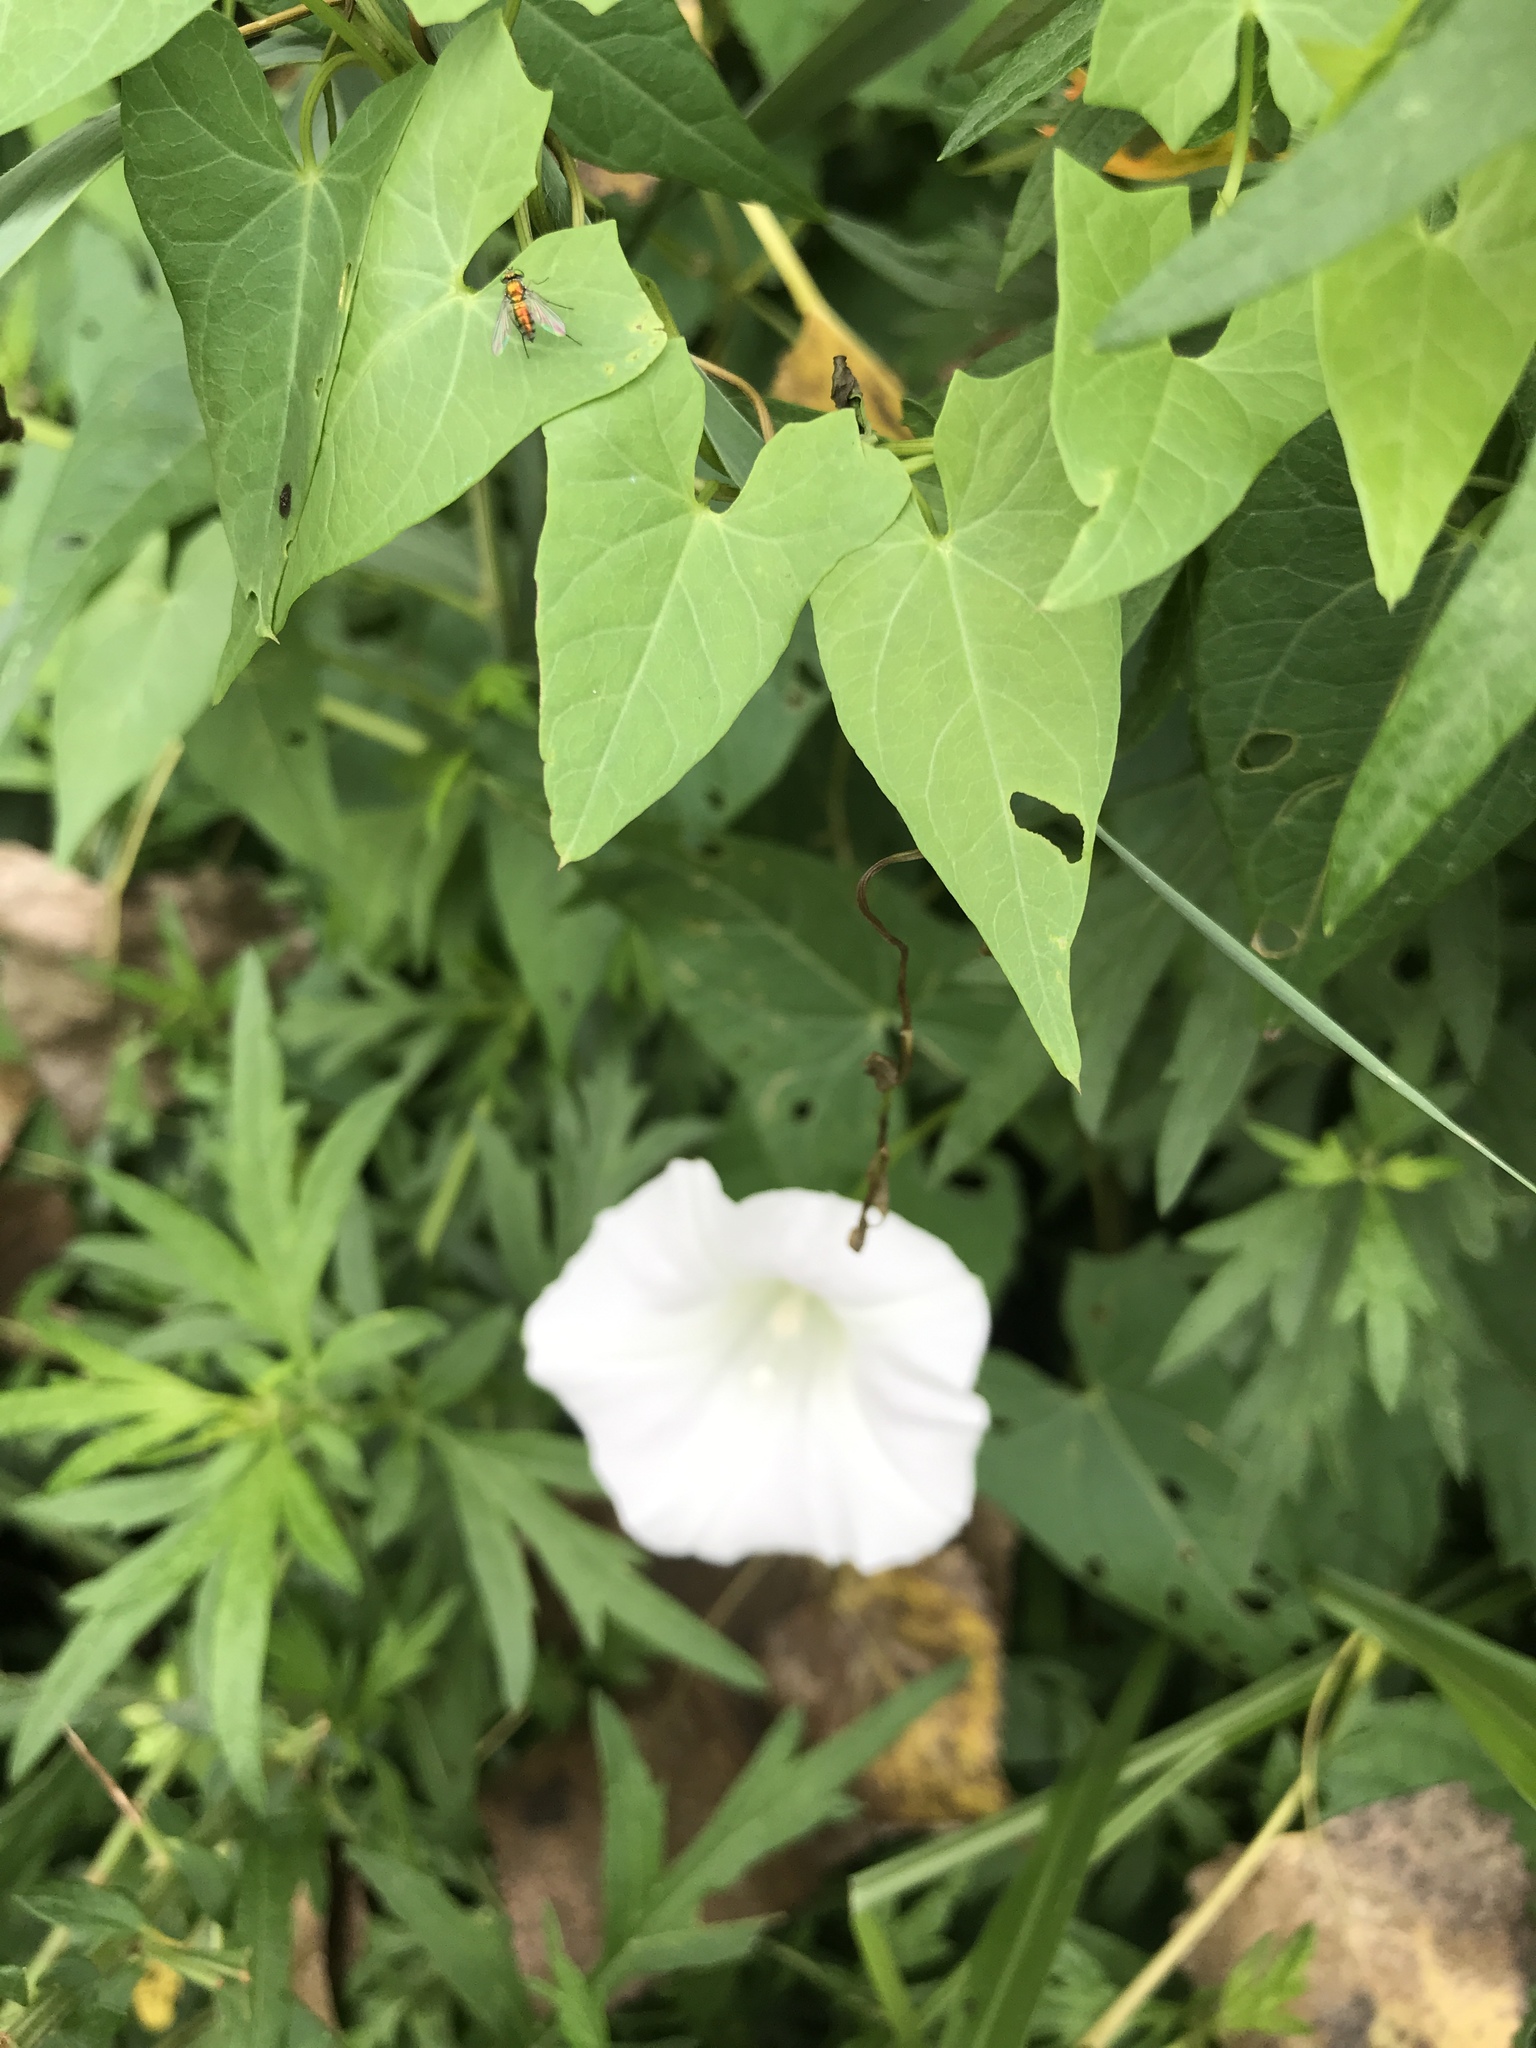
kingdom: Plantae
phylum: Tracheophyta
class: Magnoliopsida
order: Solanales
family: Convolvulaceae
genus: Calystegia
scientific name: Calystegia sepium
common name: Hedge bindweed
